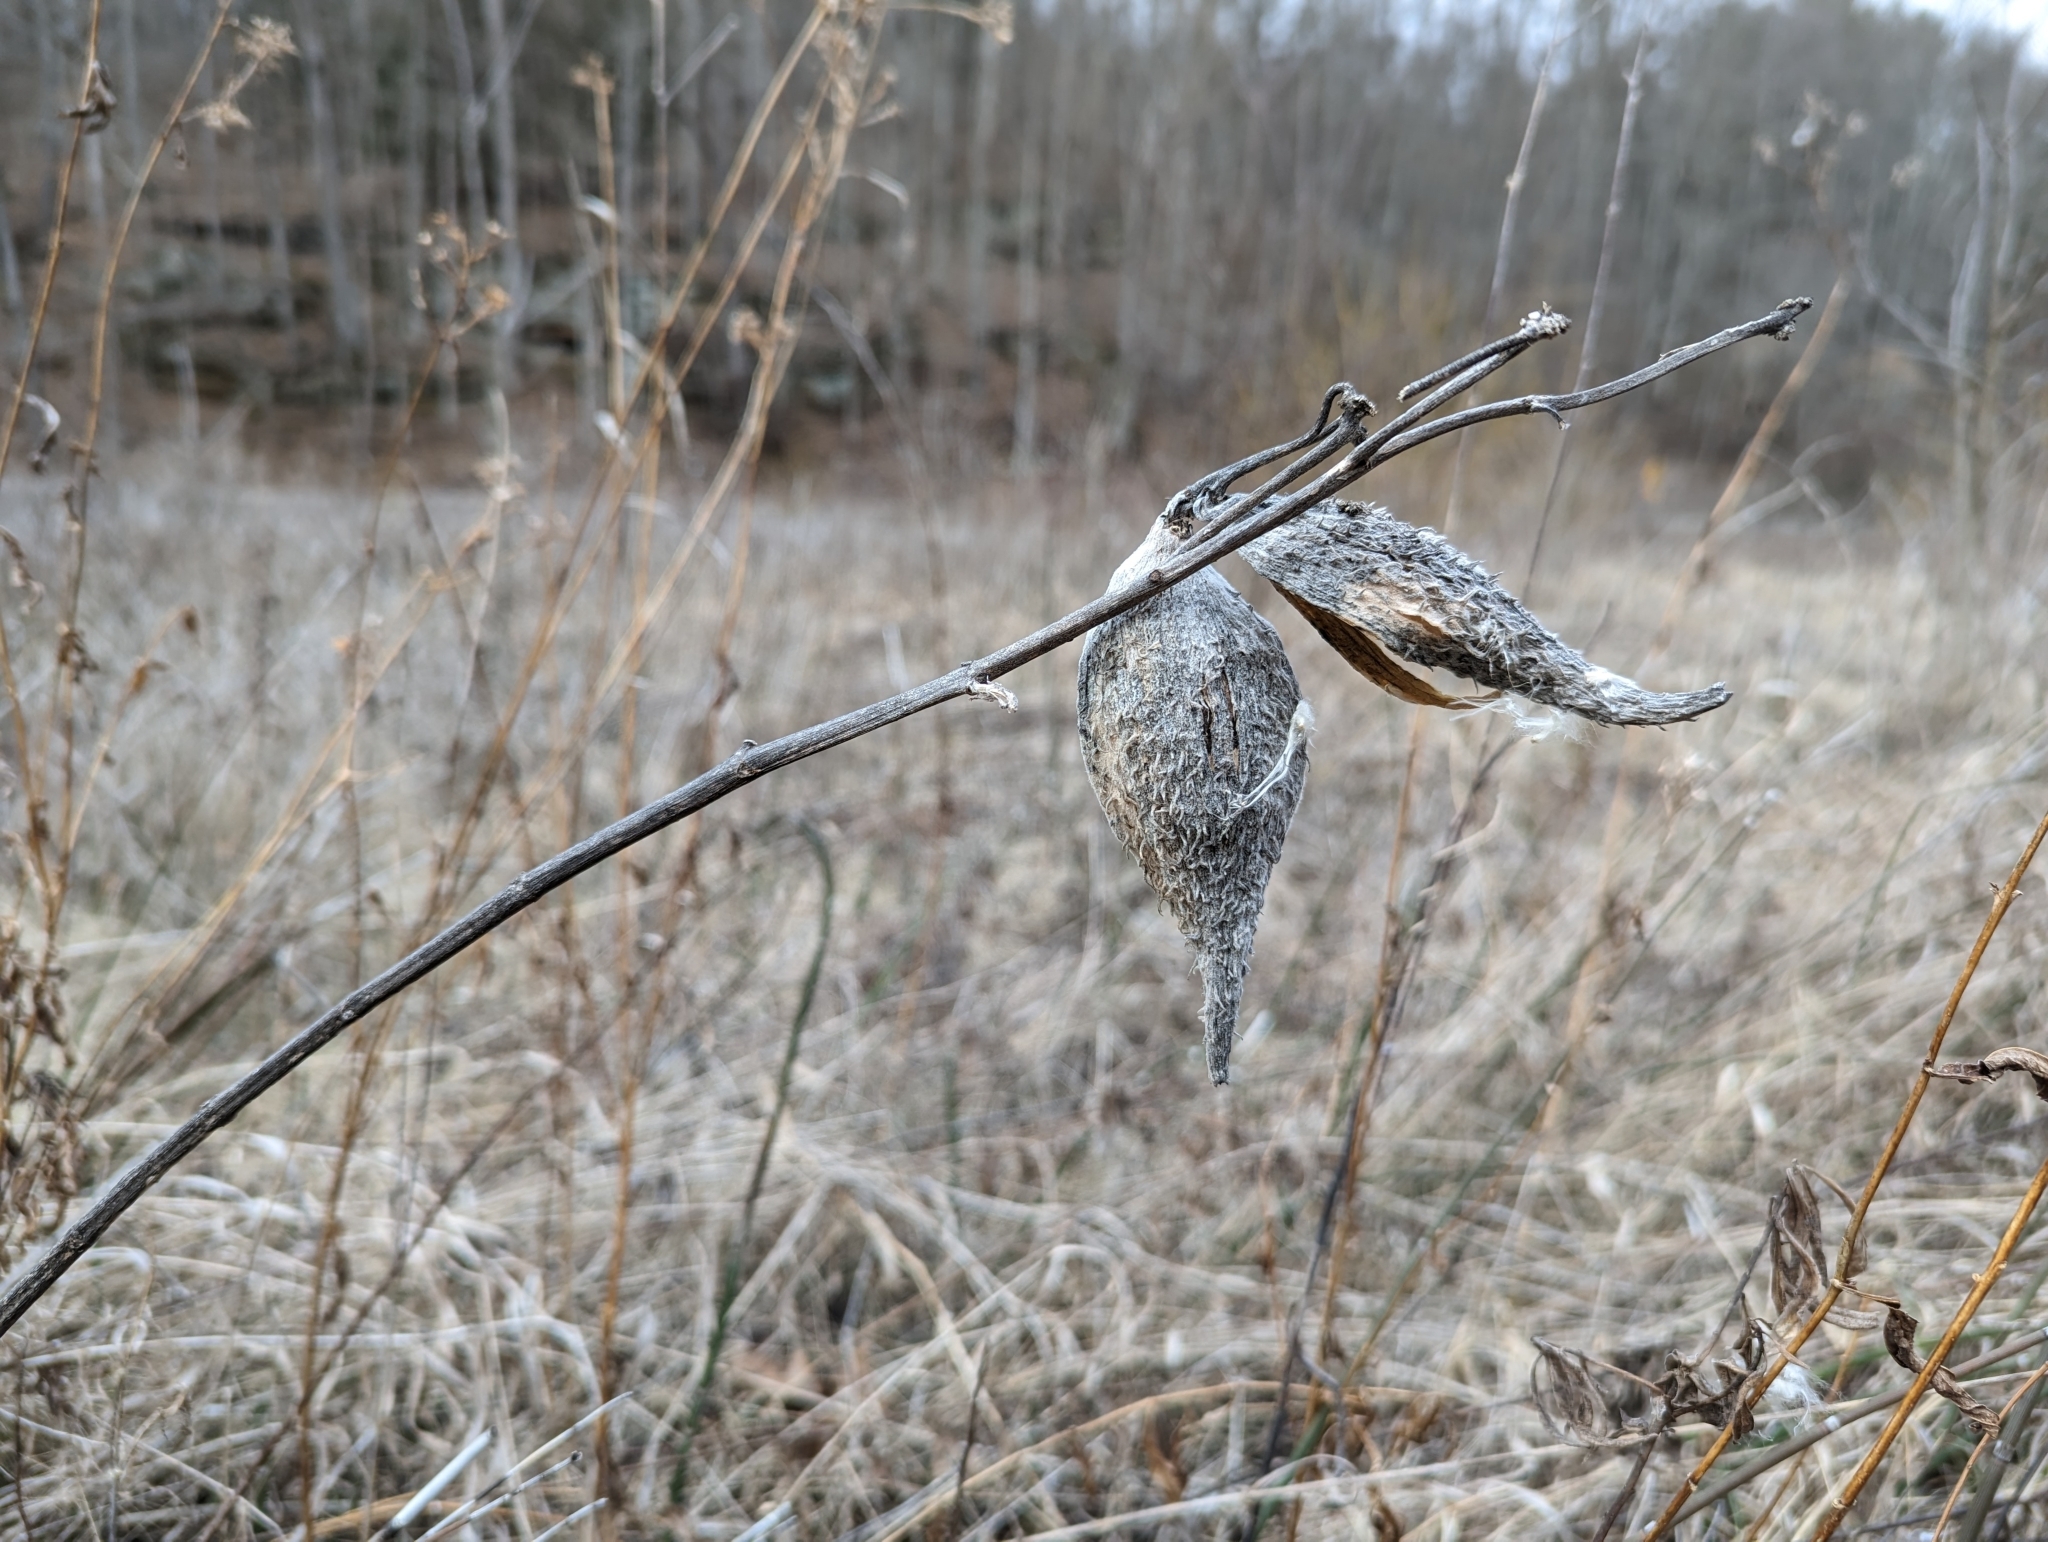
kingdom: Plantae
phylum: Tracheophyta
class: Magnoliopsida
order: Gentianales
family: Apocynaceae
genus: Asclepias
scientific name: Asclepias syriaca
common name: Common milkweed
